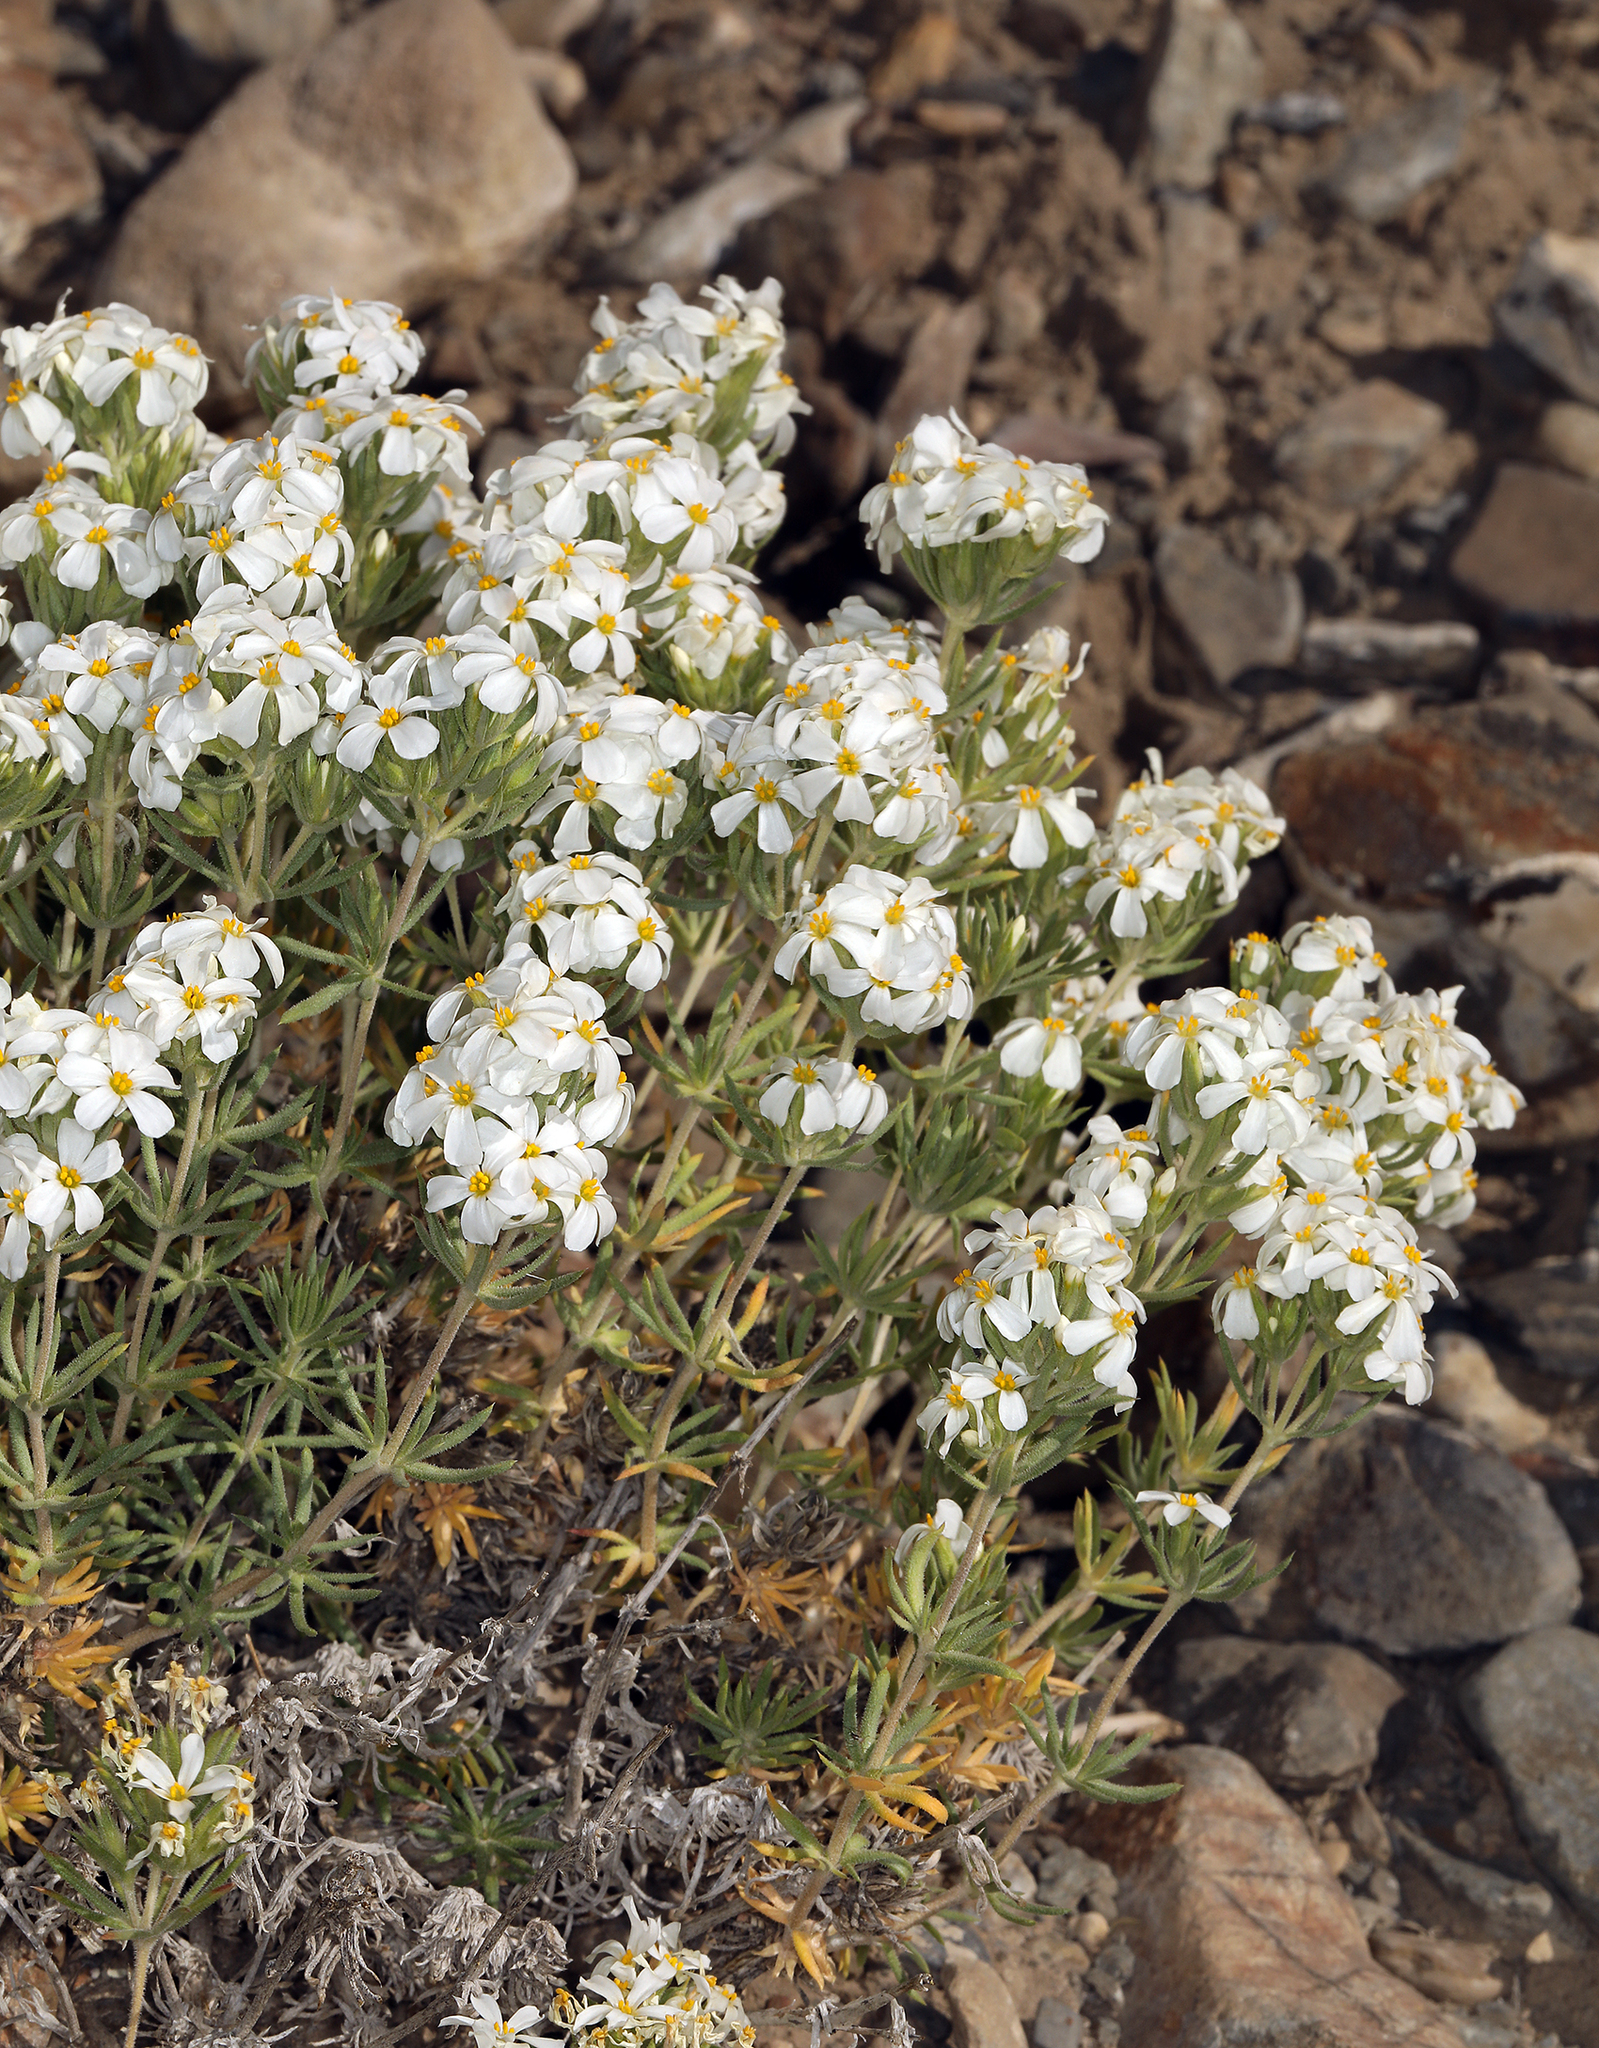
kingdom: Plantae
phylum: Tracheophyta
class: Magnoliopsida
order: Ericales
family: Polemoniaceae
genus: Leptosiphon
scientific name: Leptosiphon nuttallii
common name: Nuttall's linanthus
